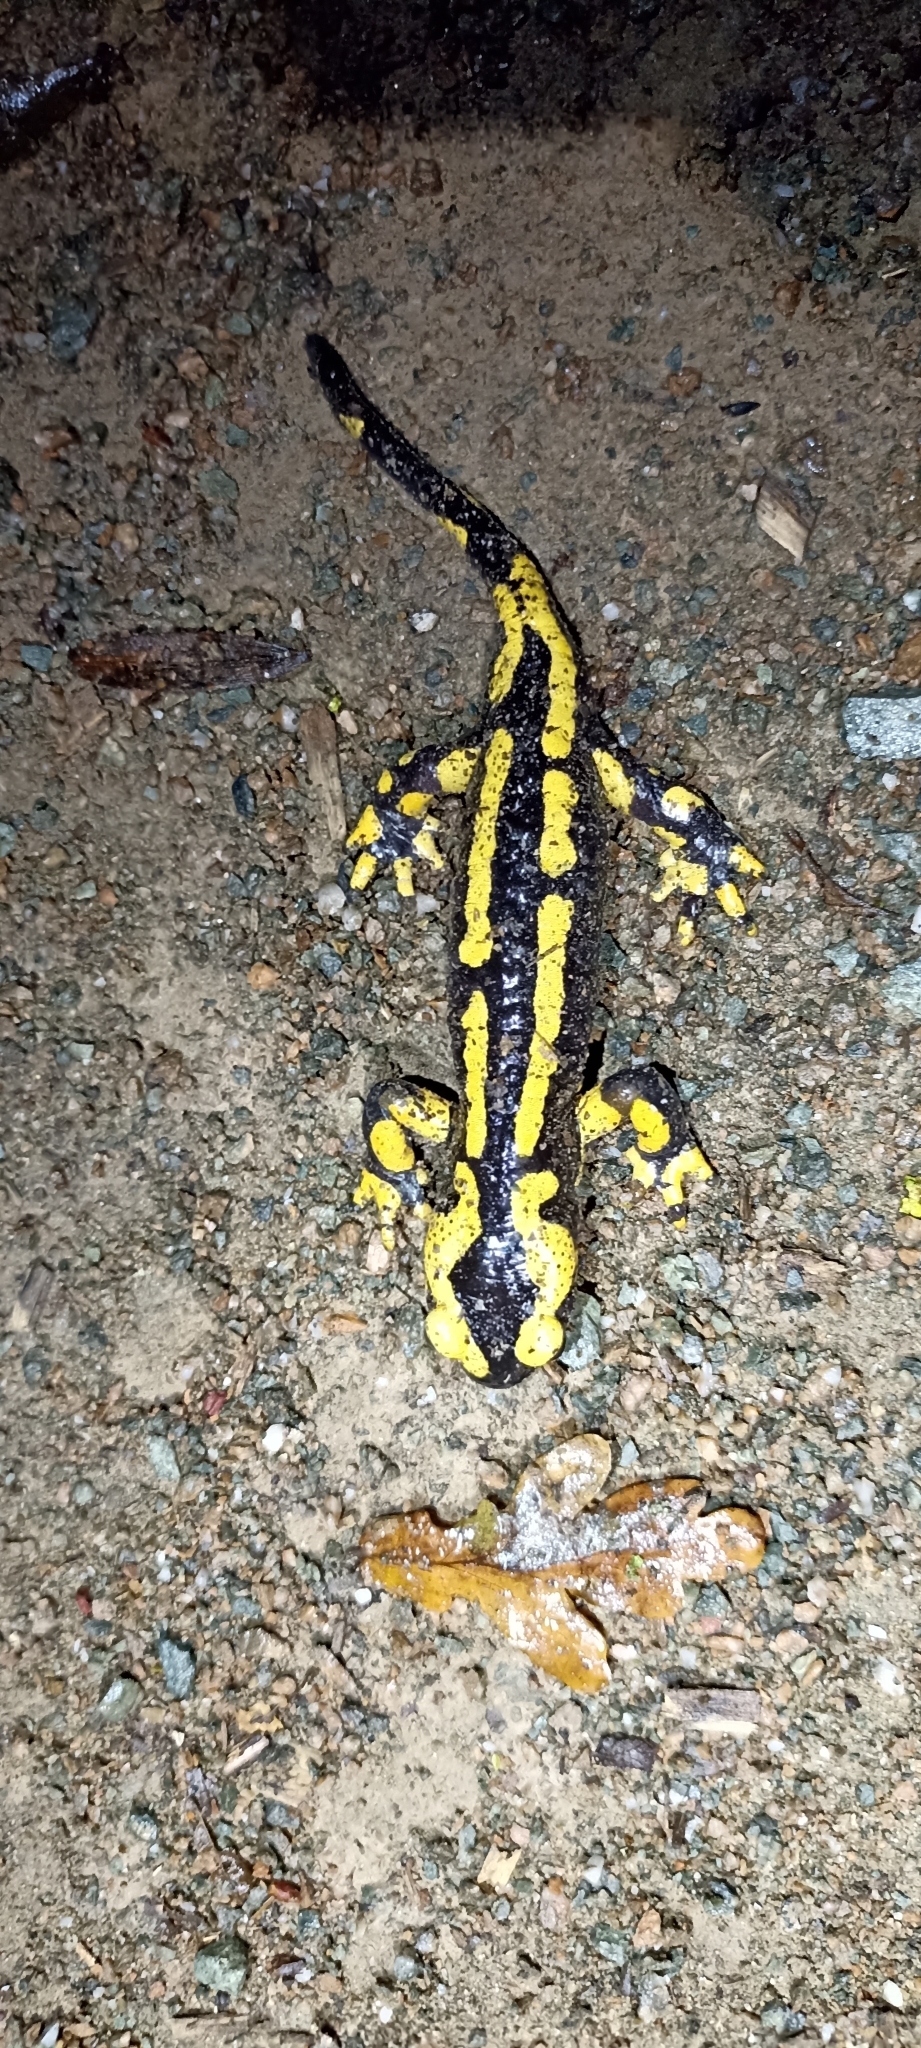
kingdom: Animalia
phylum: Chordata
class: Amphibia
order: Caudata
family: Salamandridae
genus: Salamandra
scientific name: Salamandra salamandra
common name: Fire salamander
